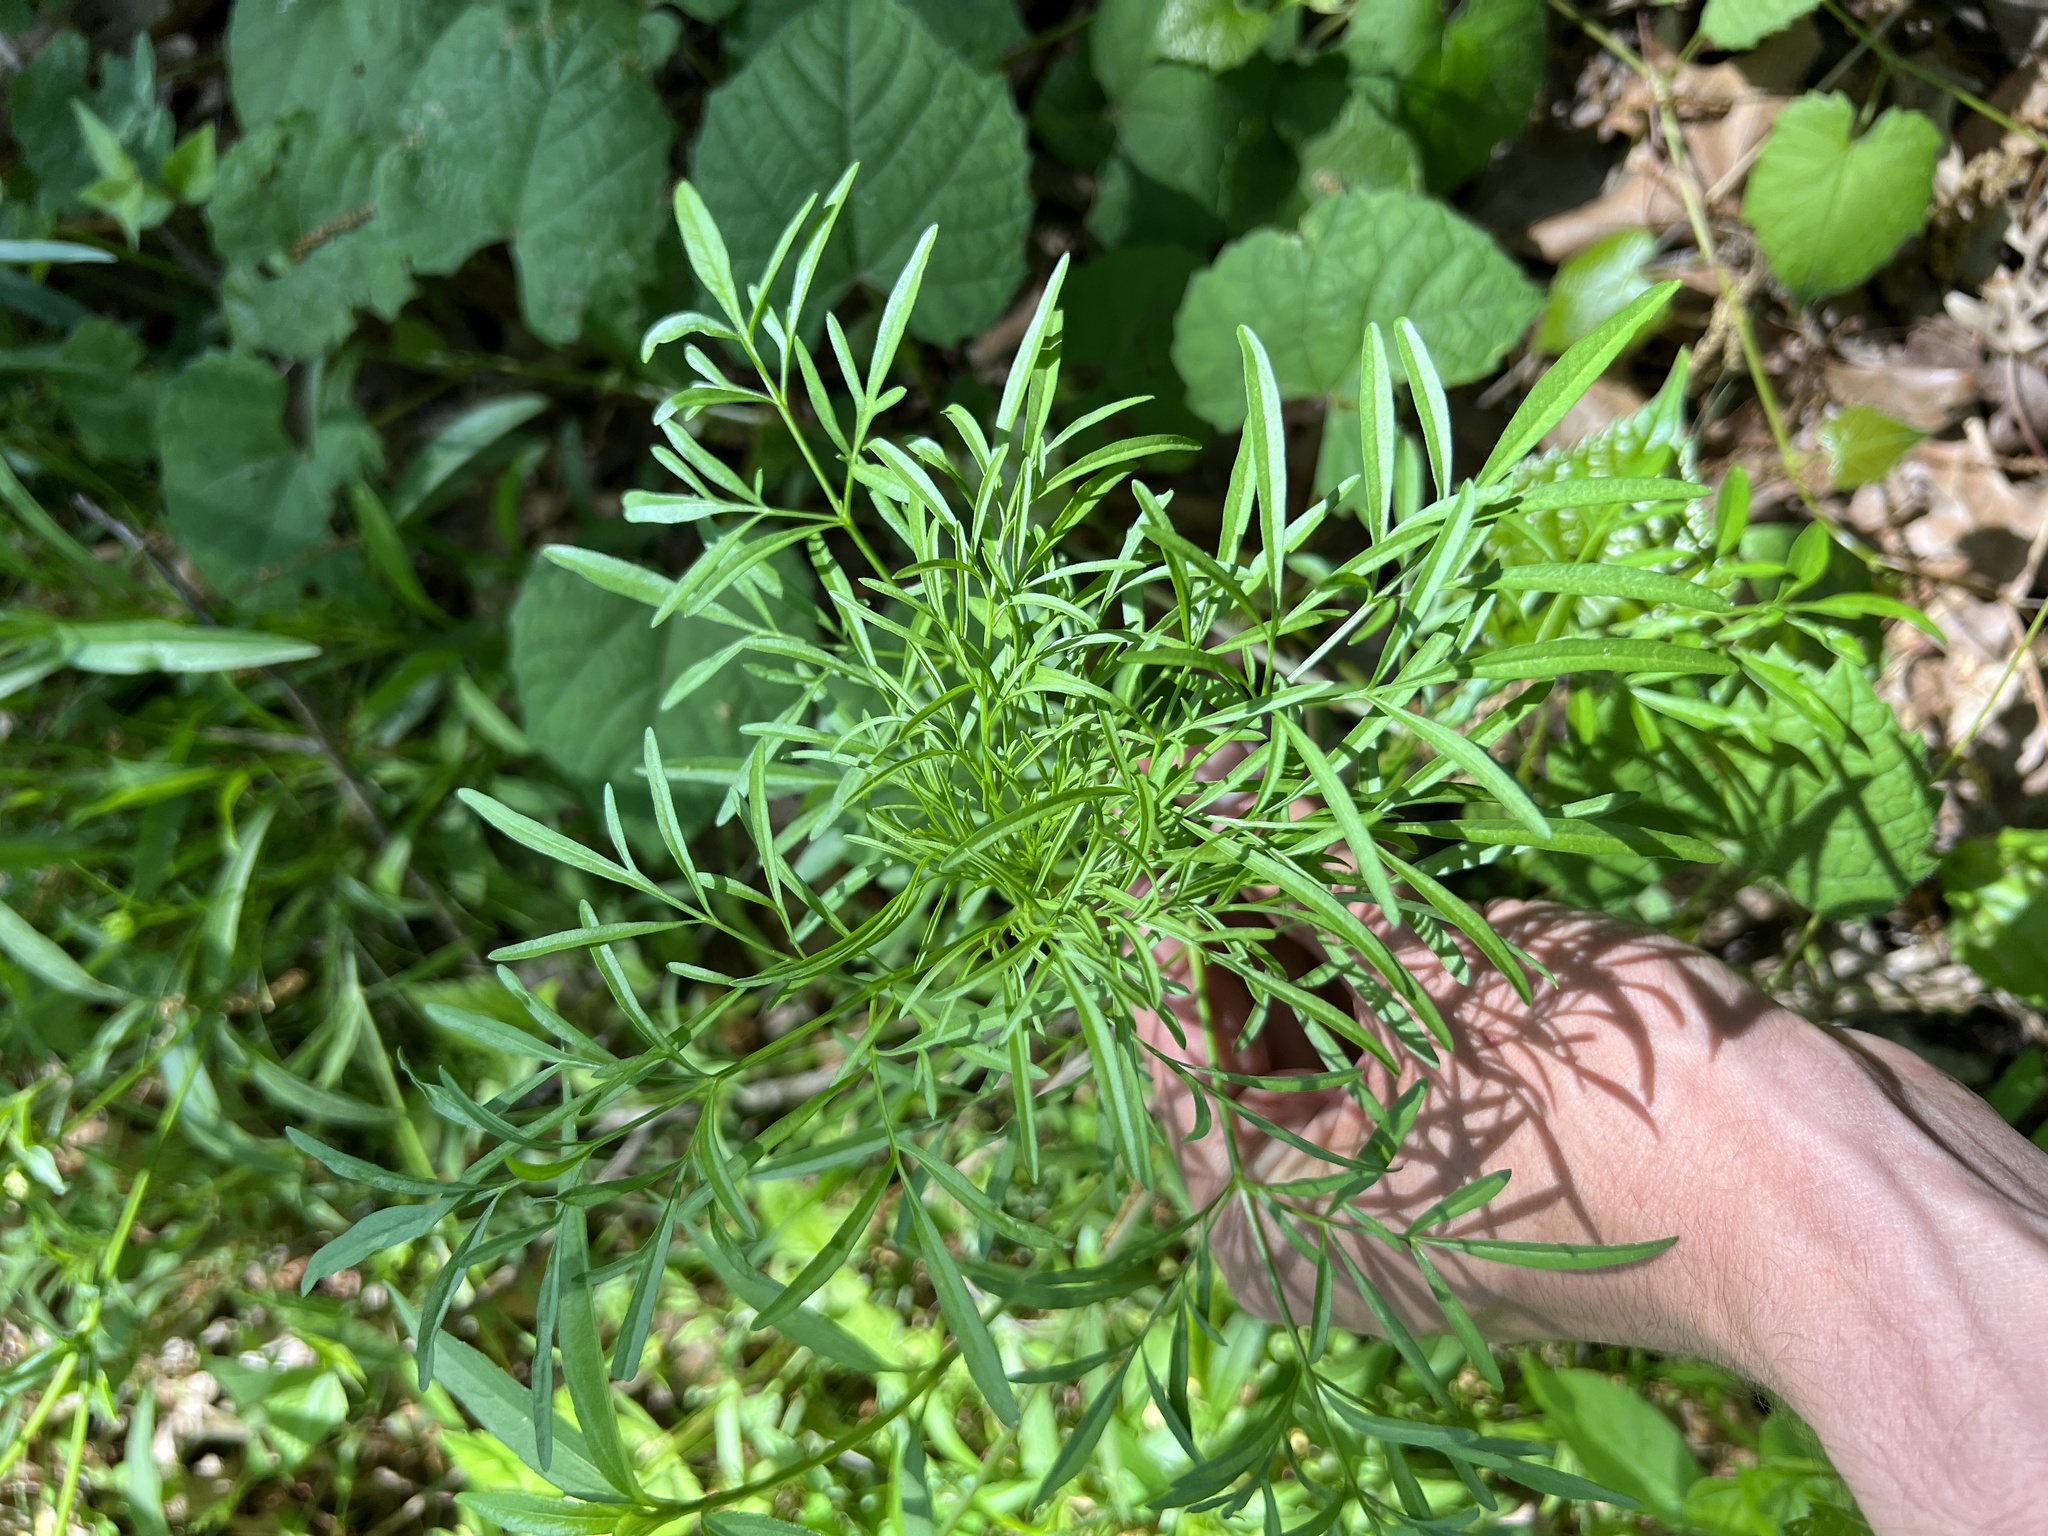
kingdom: Plantae
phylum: Tracheophyta
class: Magnoliopsida
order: Asterales
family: Asteraceae
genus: Cosmos
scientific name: Cosmos bipinnatus
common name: Garden cosmos
